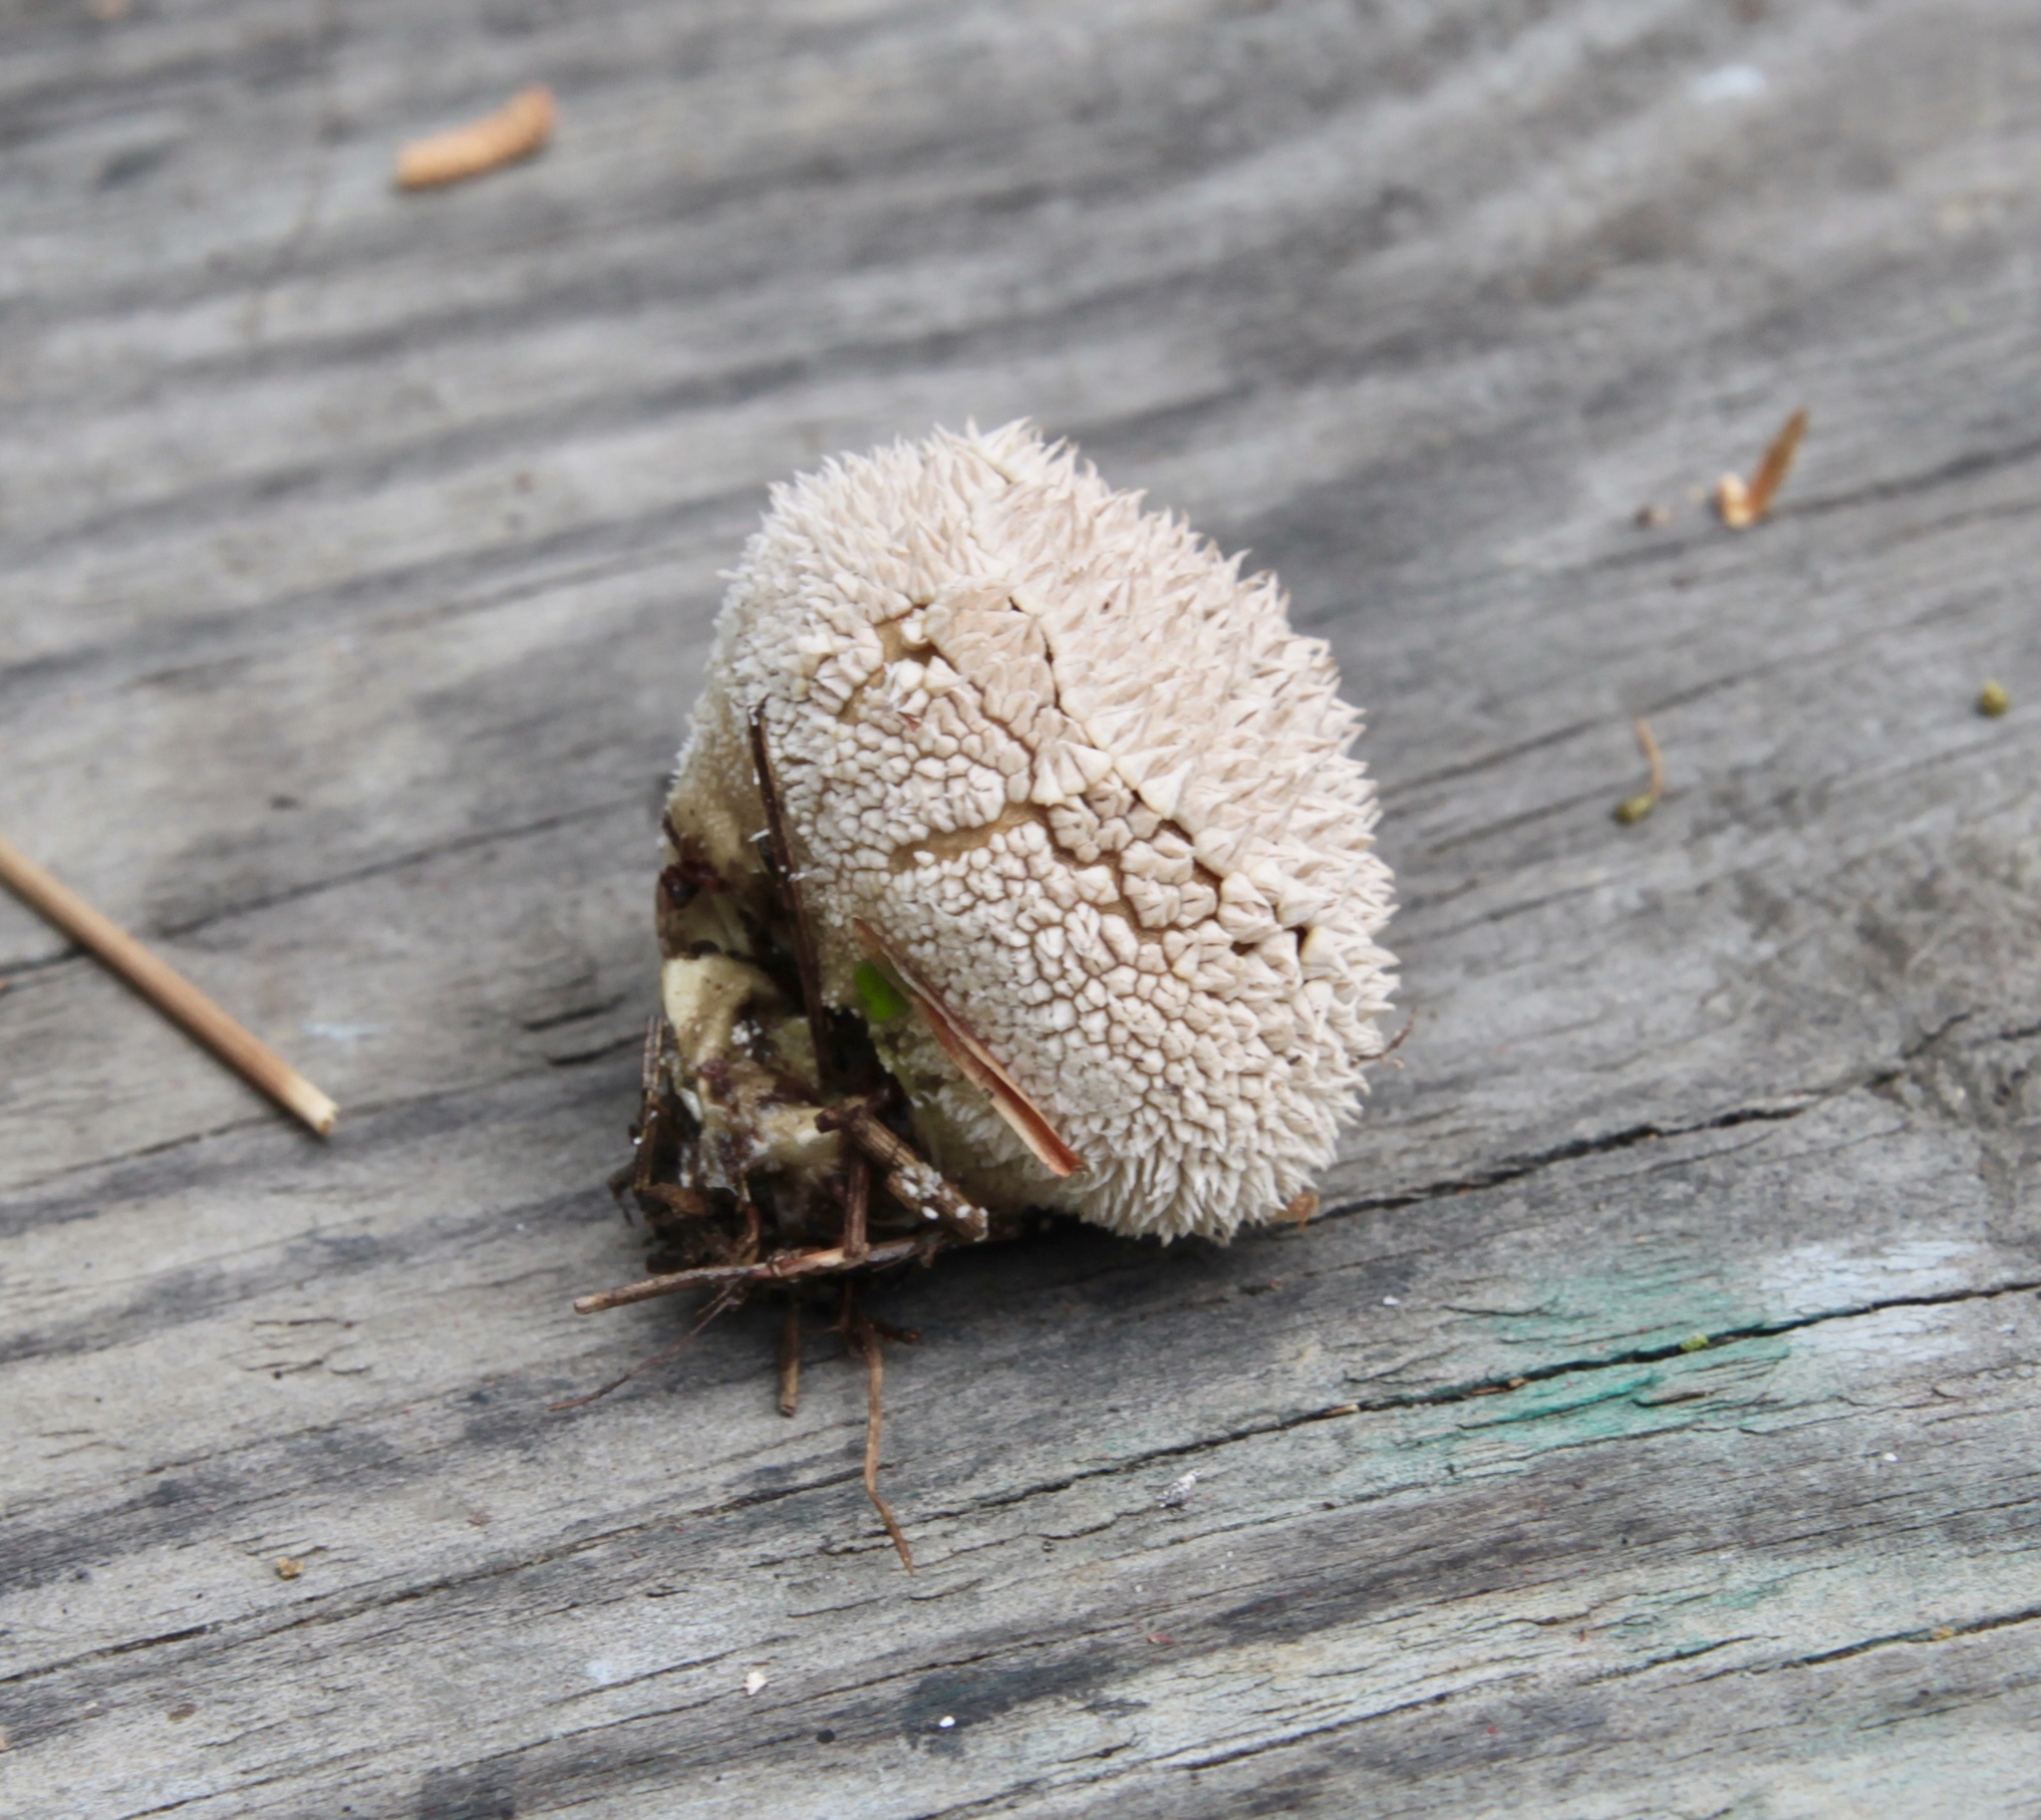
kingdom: Fungi
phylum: Basidiomycota
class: Agaricomycetes
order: Agaricales
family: Agaricaceae
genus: Lycoperdon
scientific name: Lycoperdon marginatum
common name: Peeling puffball
